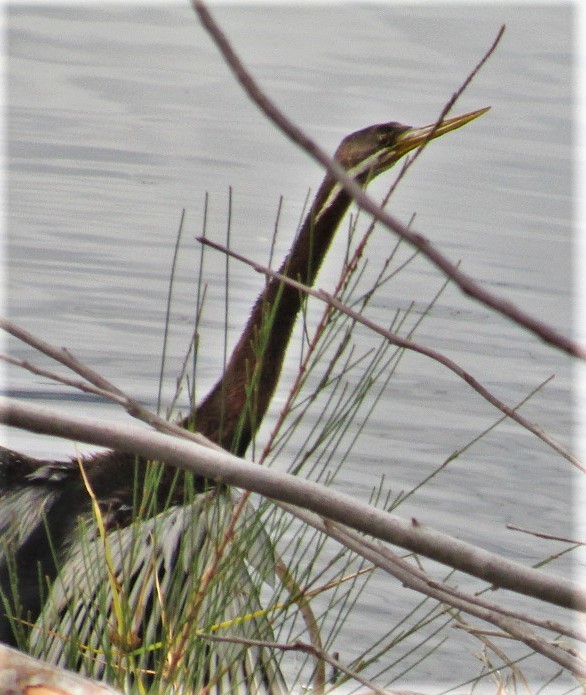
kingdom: Animalia
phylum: Chordata
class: Aves
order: Suliformes
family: Anhingidae
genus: Anhinga
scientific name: Anhinga novaehollandiae
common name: Australasian darter
